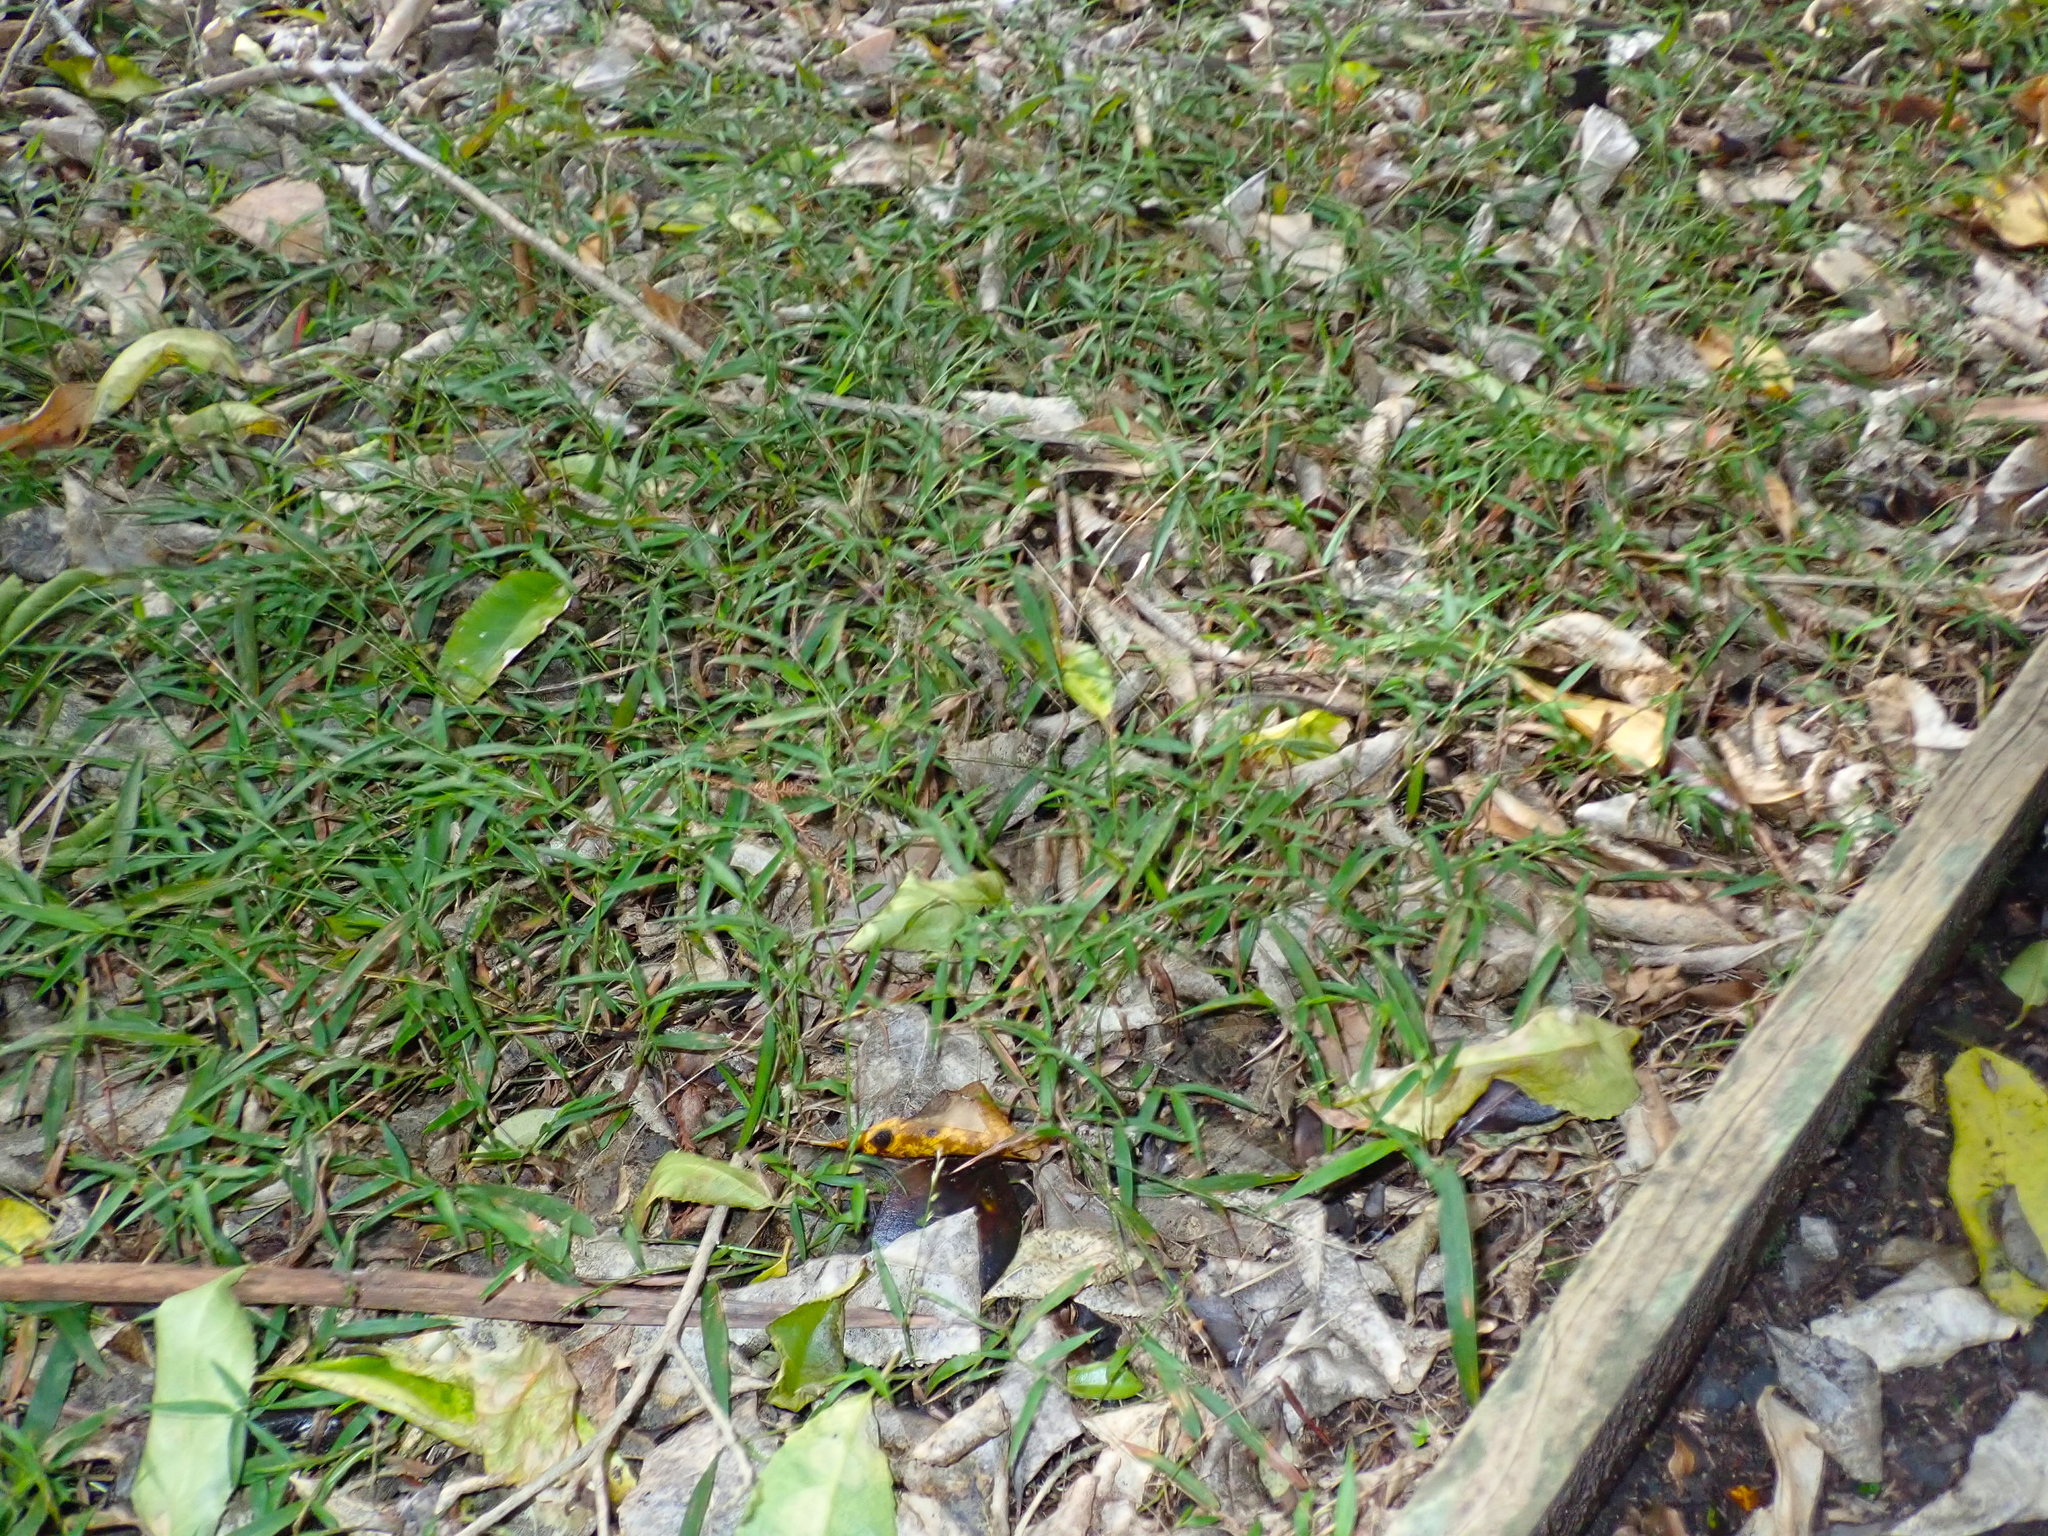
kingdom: Plantae
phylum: Tracheophyta
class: Liliopsida
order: Poales
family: Poaceae
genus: Oplismenus
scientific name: Oplismenus hirtellus
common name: Basketgrass
